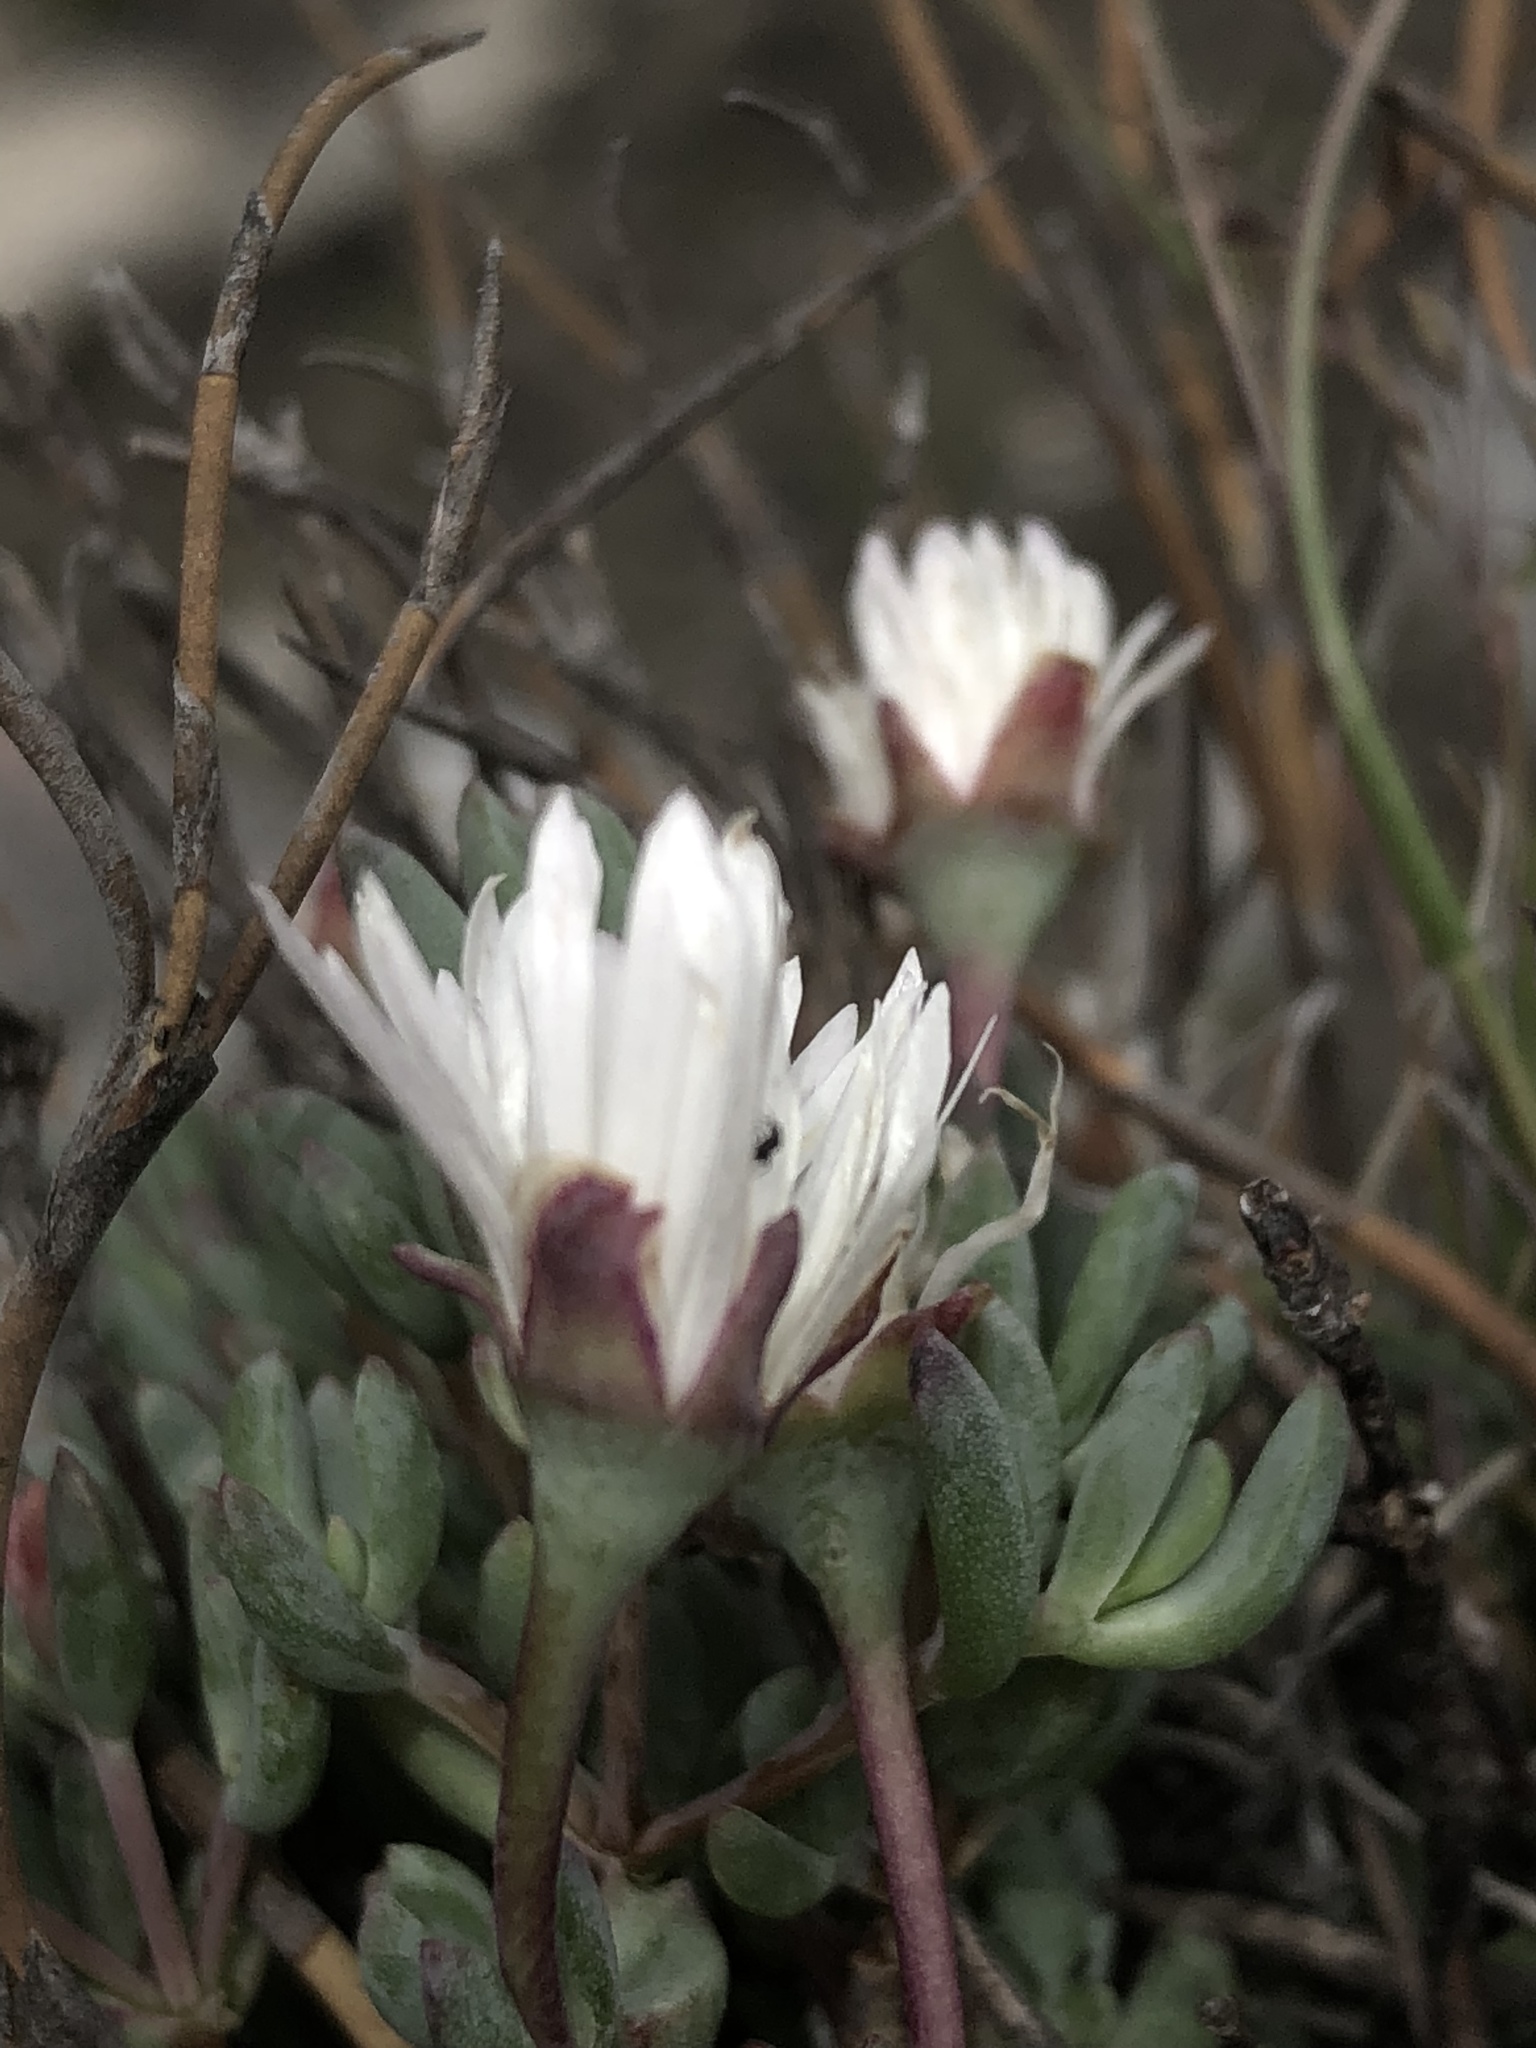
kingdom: Plantae
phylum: Tracheophyta
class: Magnoliopsida
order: Caryophyllales
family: Aizoaceae
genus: Lampranthus
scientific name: Lampranthus falcatus
